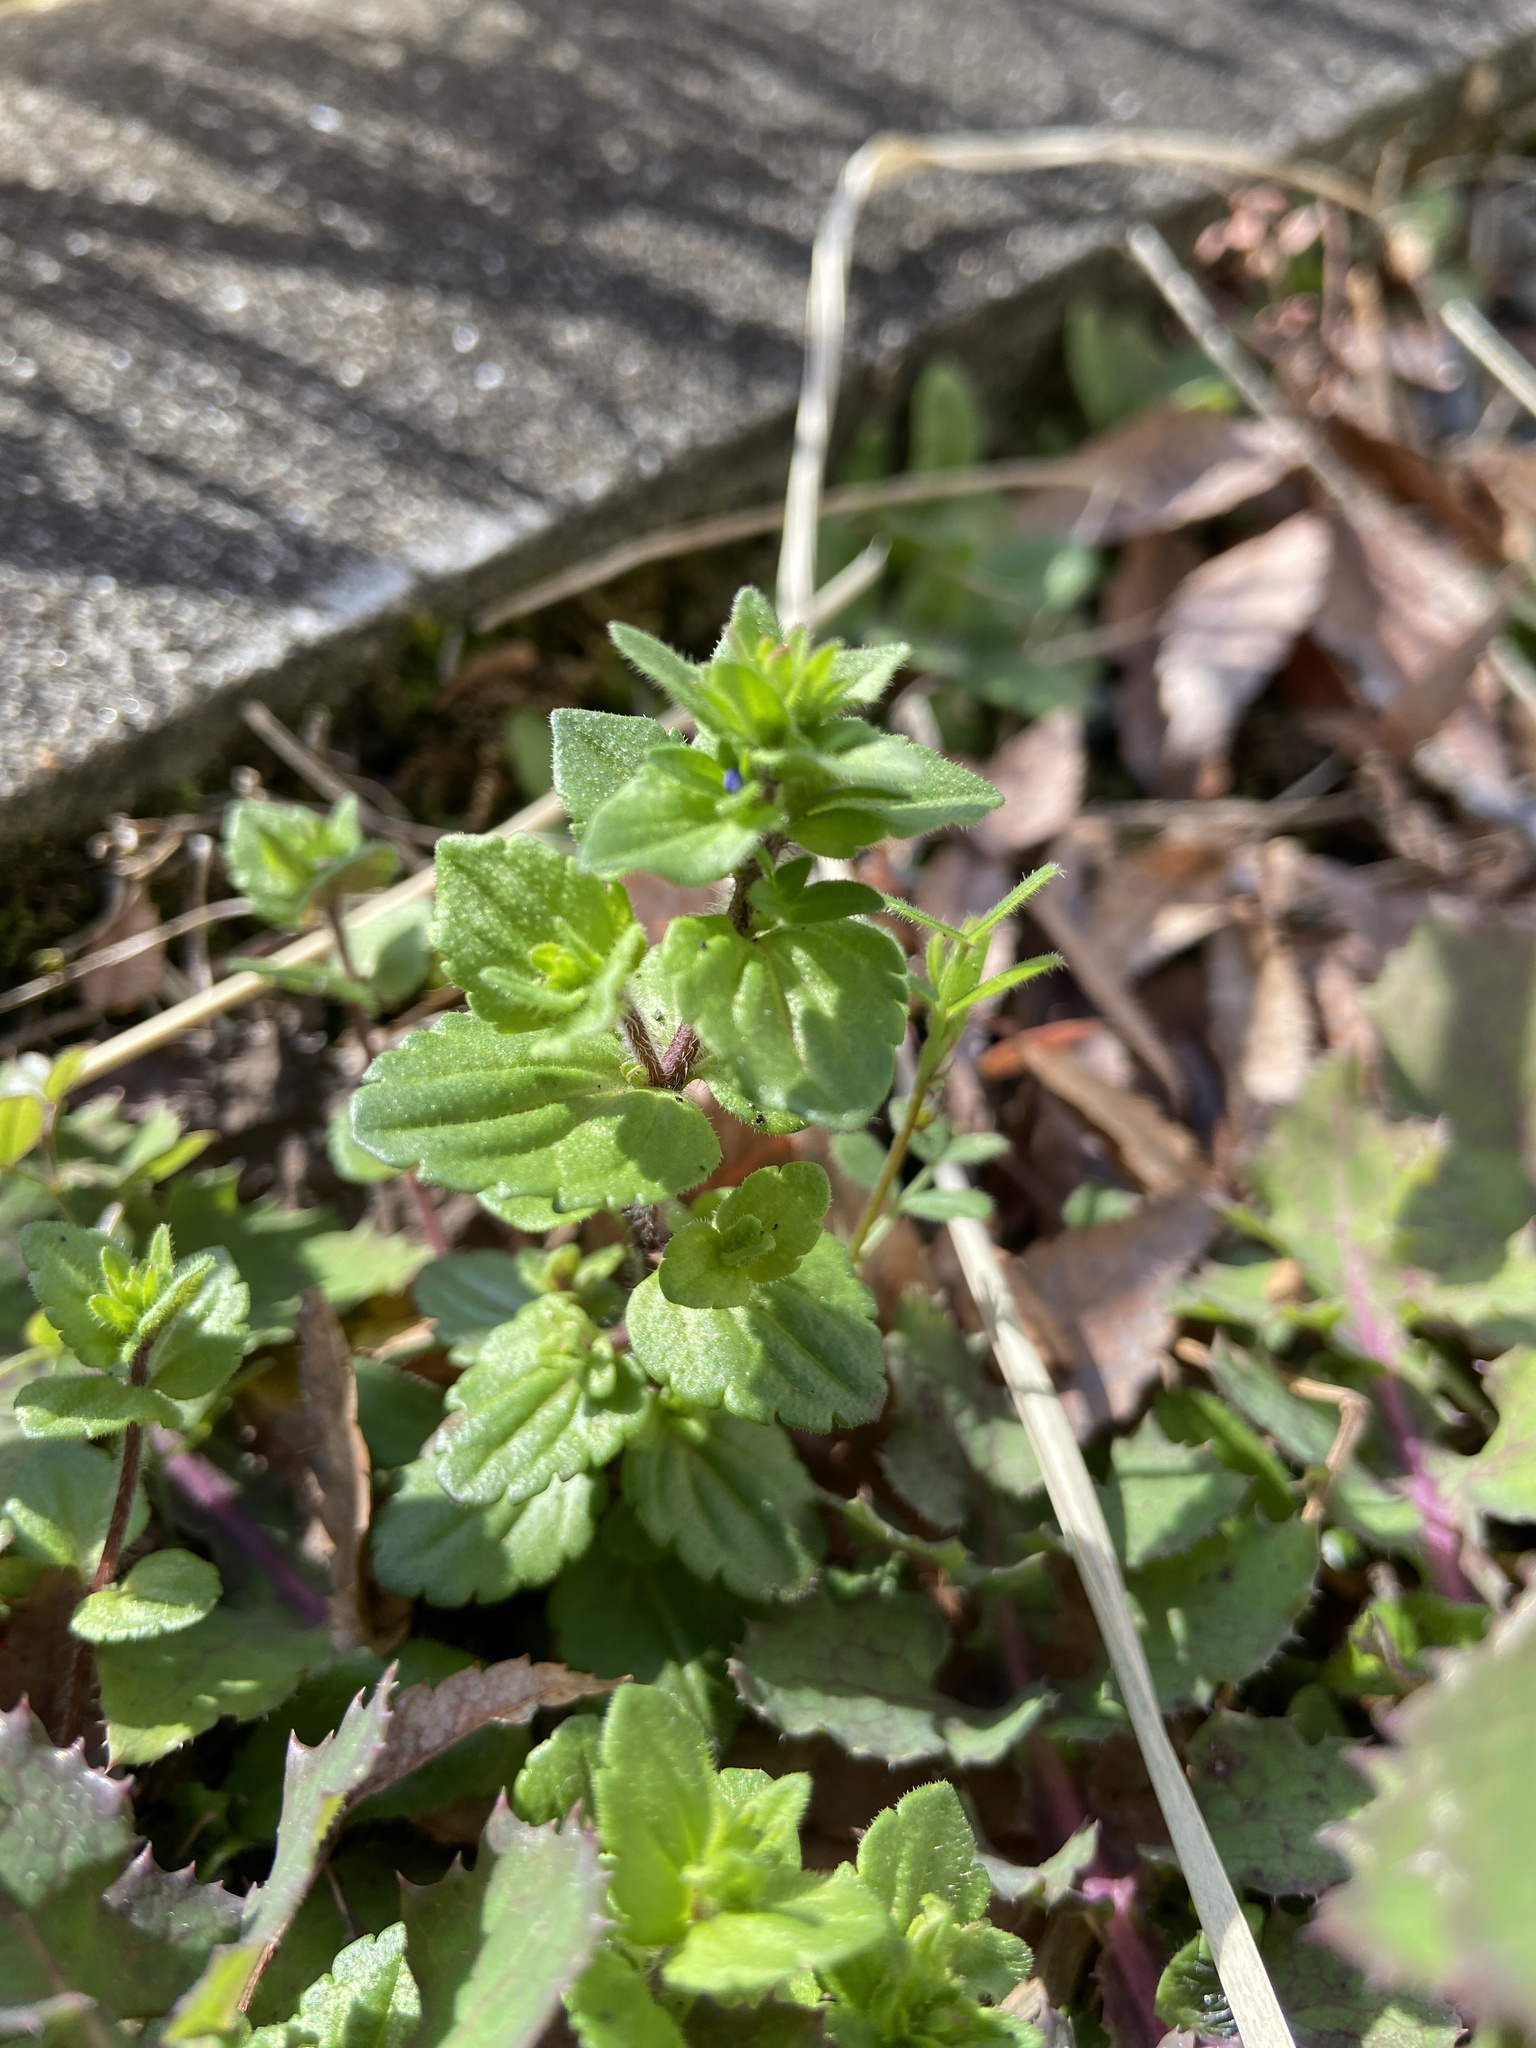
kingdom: Plantae
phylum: Tracheophyta
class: Magnoliopsida
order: Lamiales
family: Plantaginaceae
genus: Veronica
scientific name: Veronica arvensis
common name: Corn speedwell
